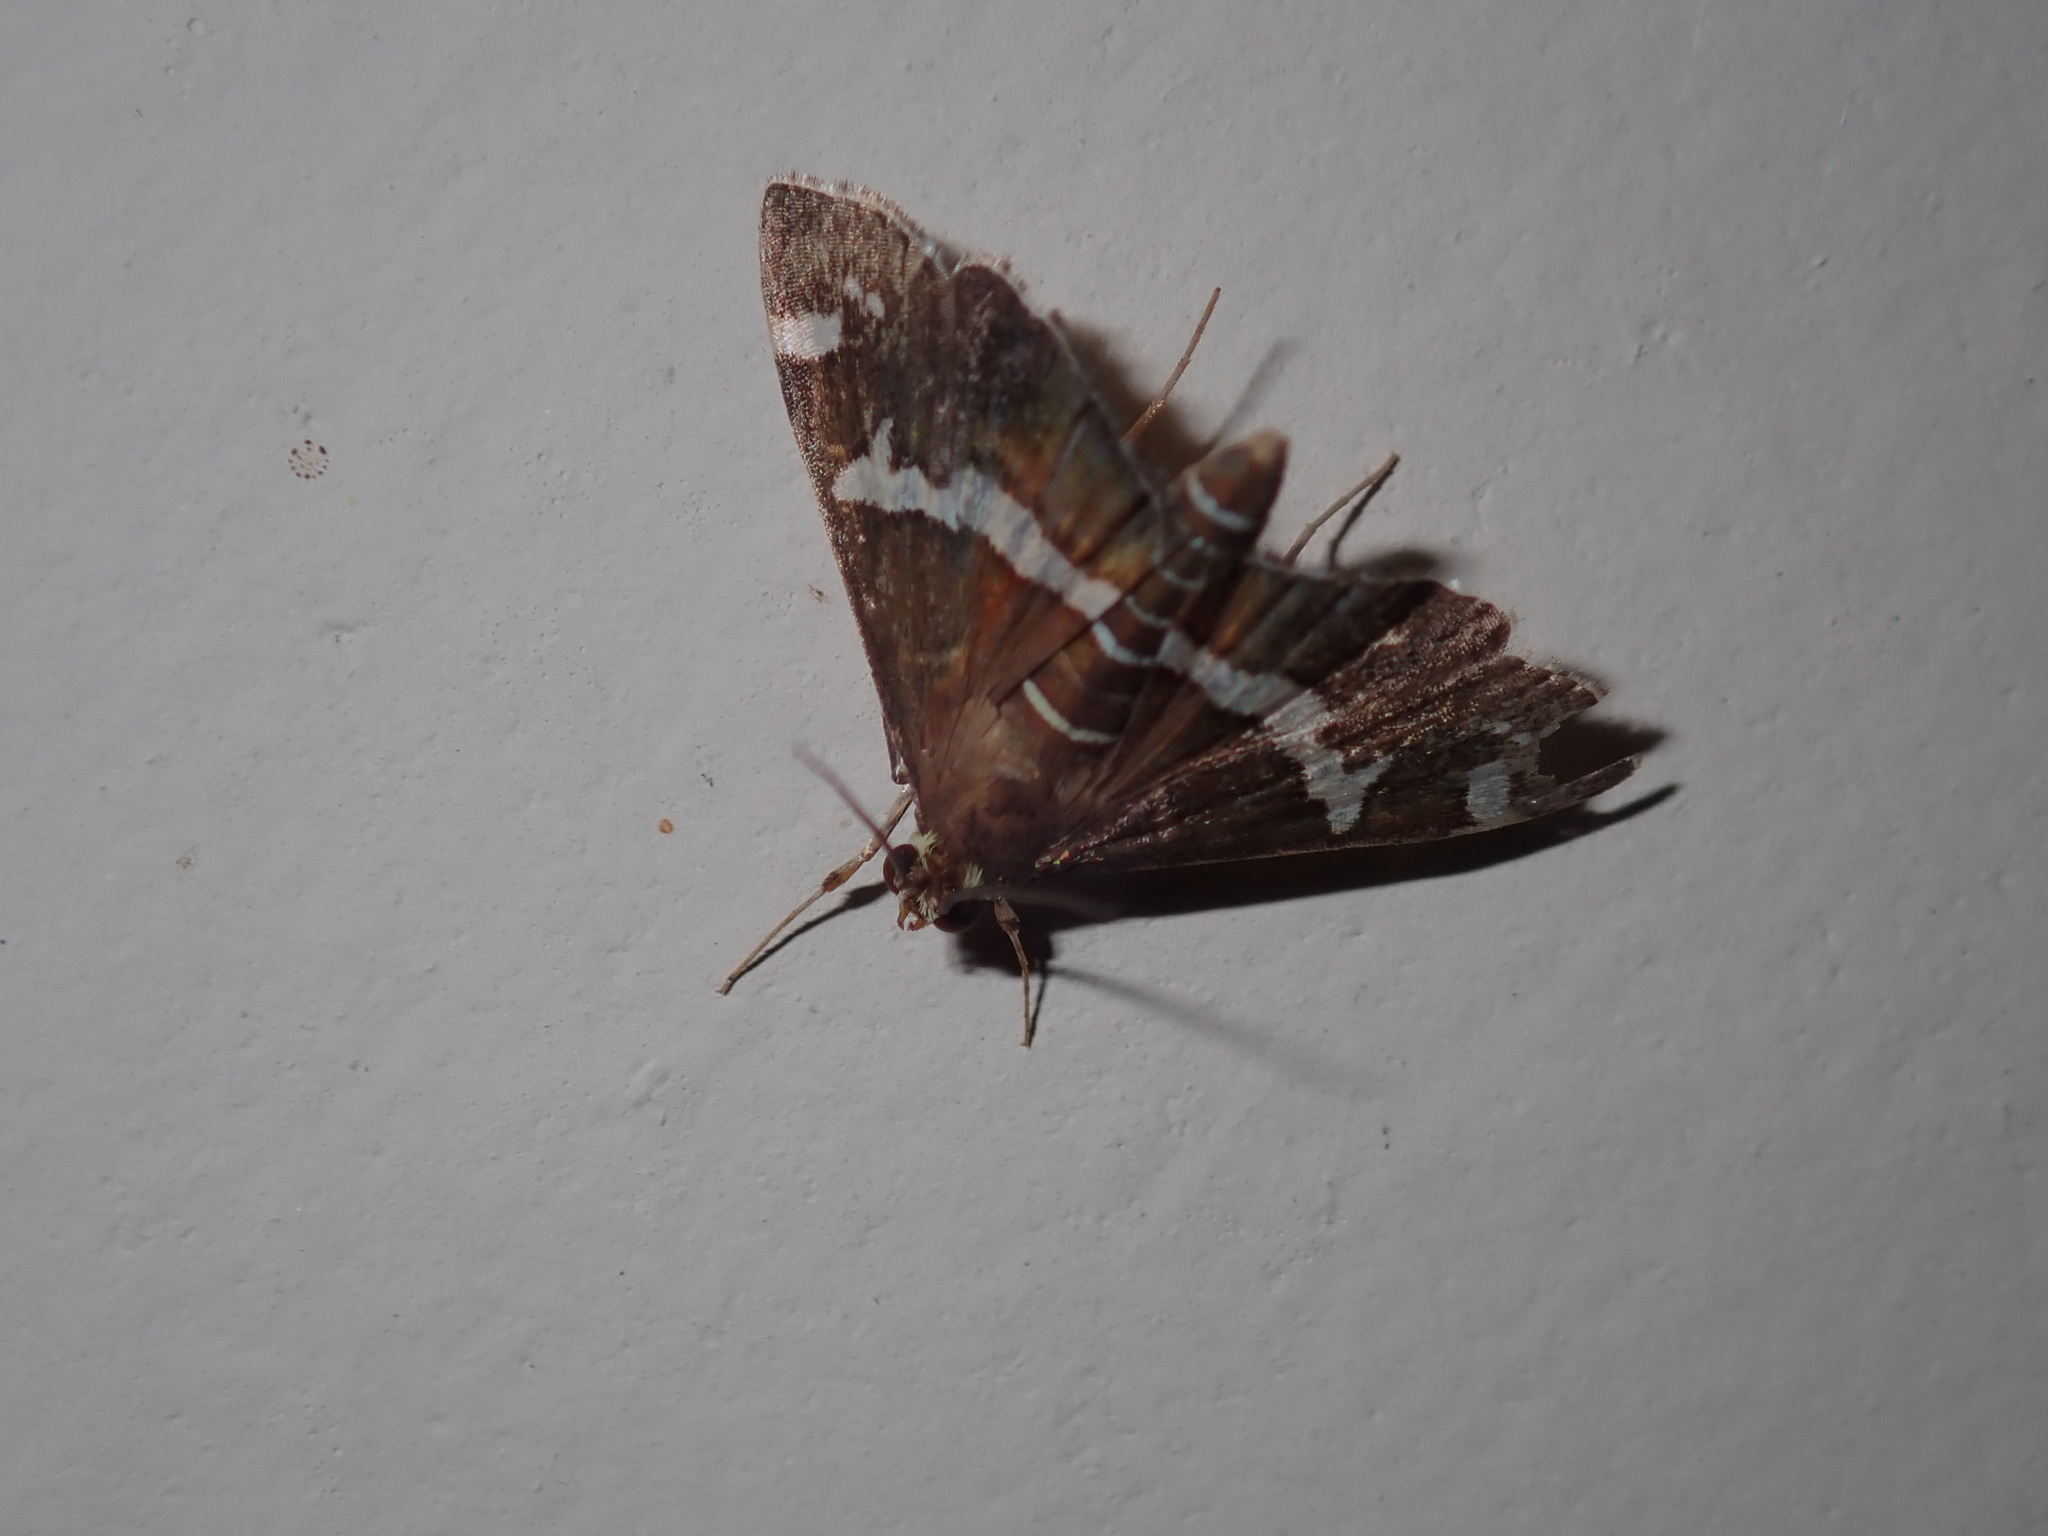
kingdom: Animalia
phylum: Arthropoda
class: Insecta
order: Lepidoptera
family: Crambidae
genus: Spoladea
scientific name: Spoladea recurvalis
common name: Beet webworm moth
